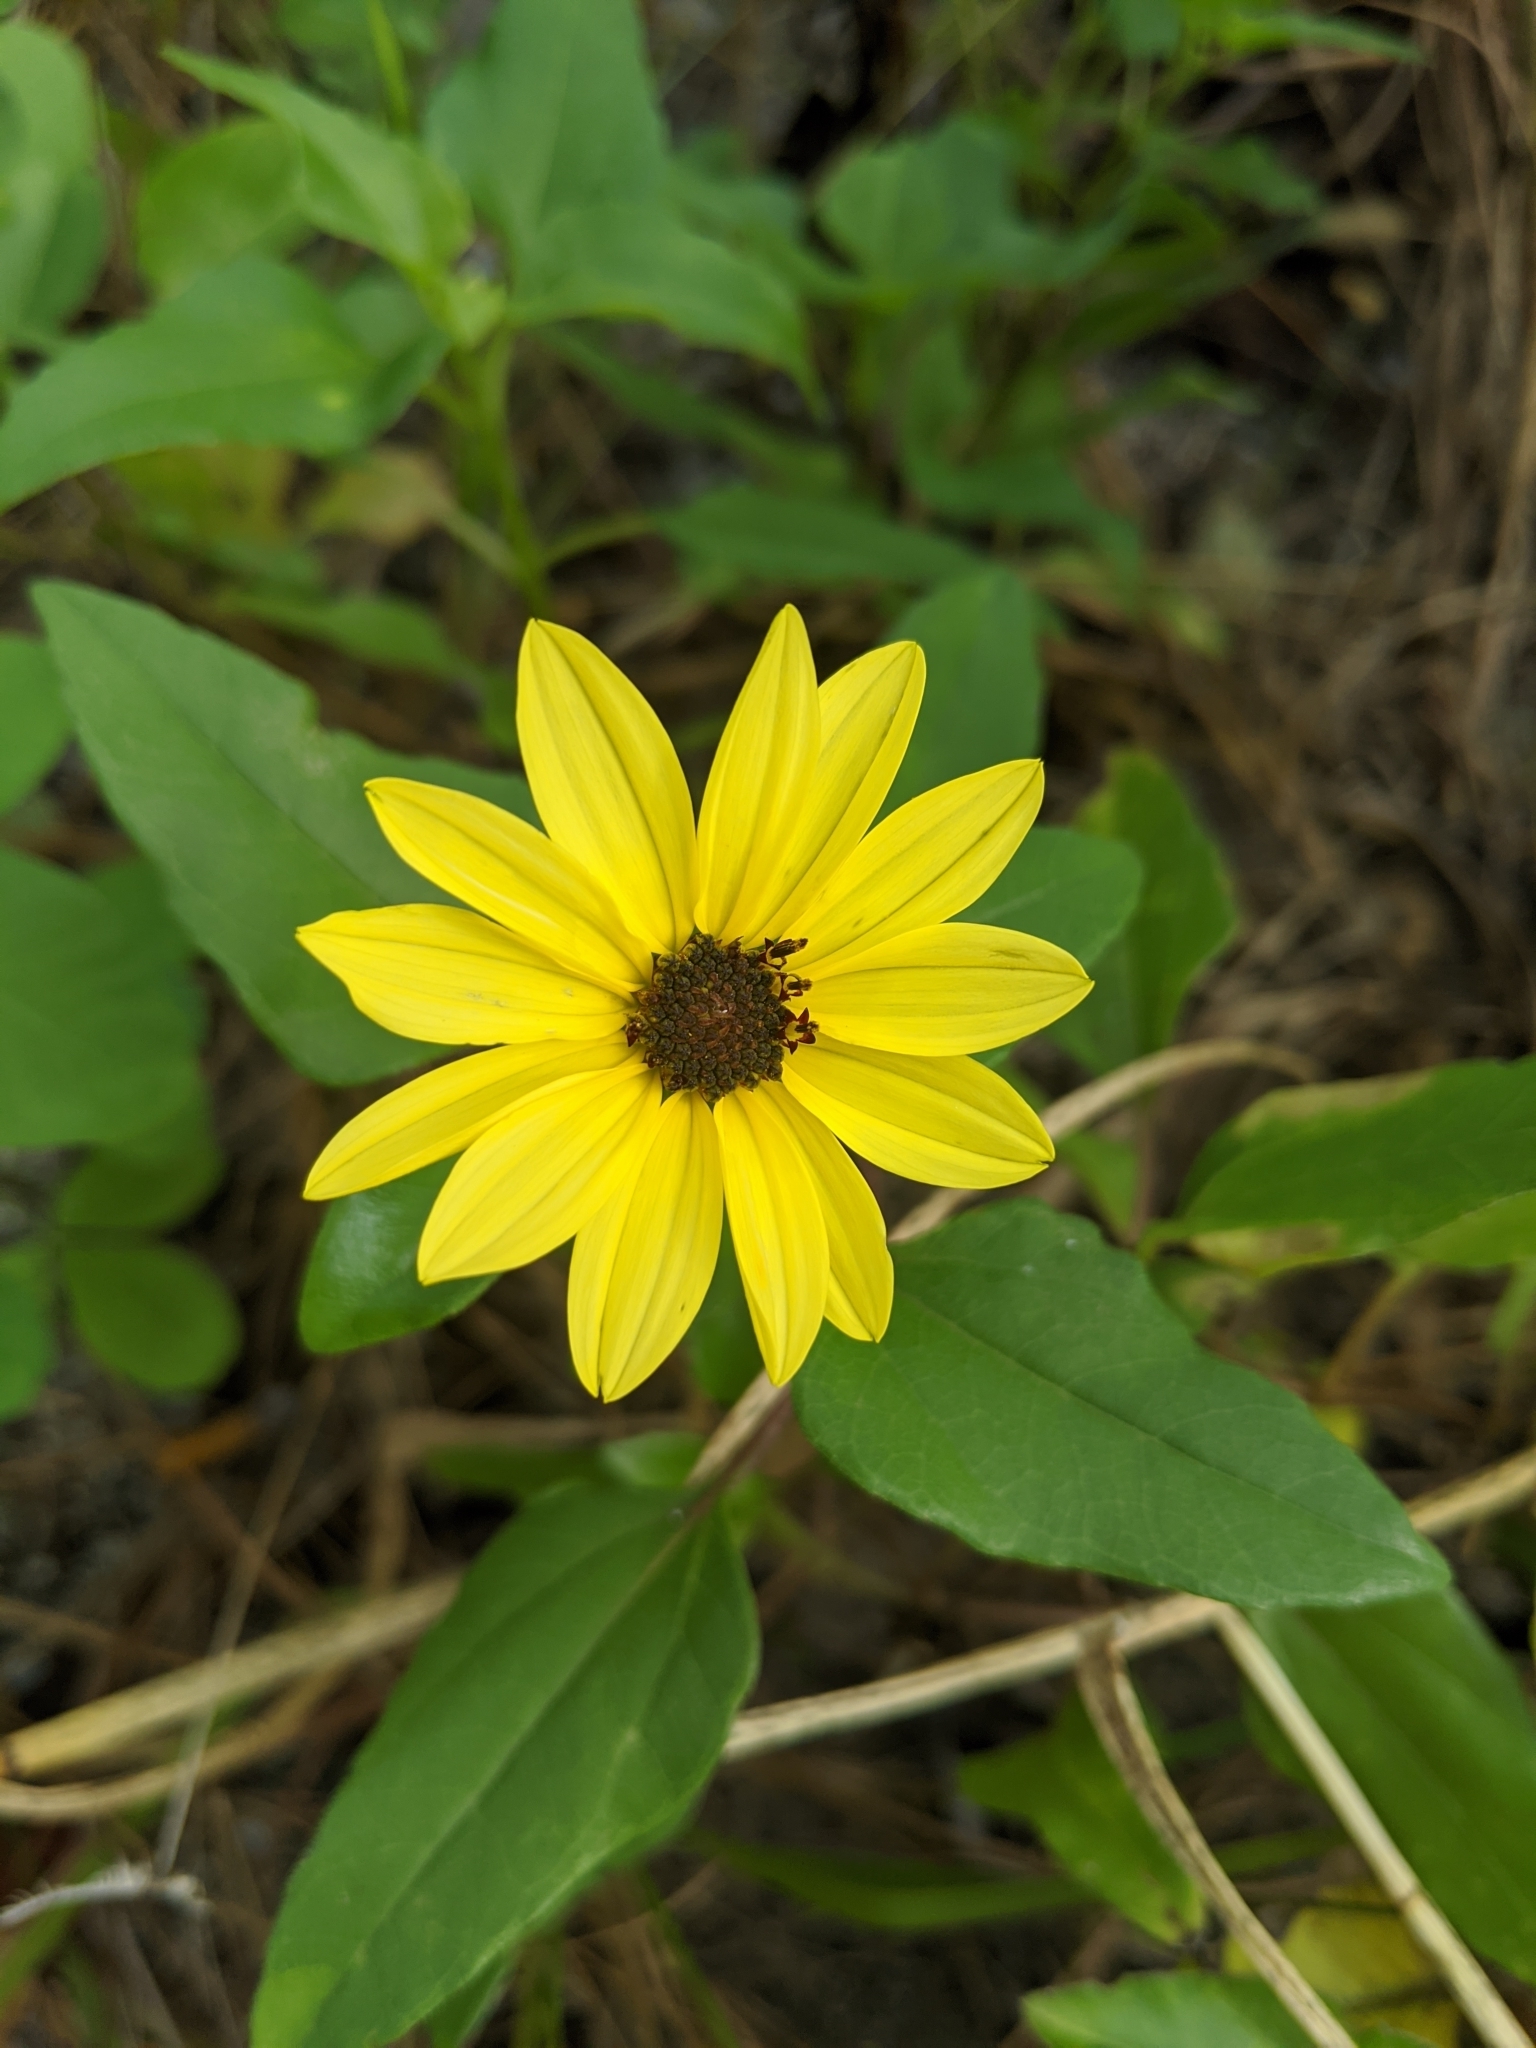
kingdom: Plantae
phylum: Tracheophyta
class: Magnoliopsida
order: Asterales
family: Asteraceae
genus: Helianthus
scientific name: Helianthus debilis
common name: Weak sunflower
